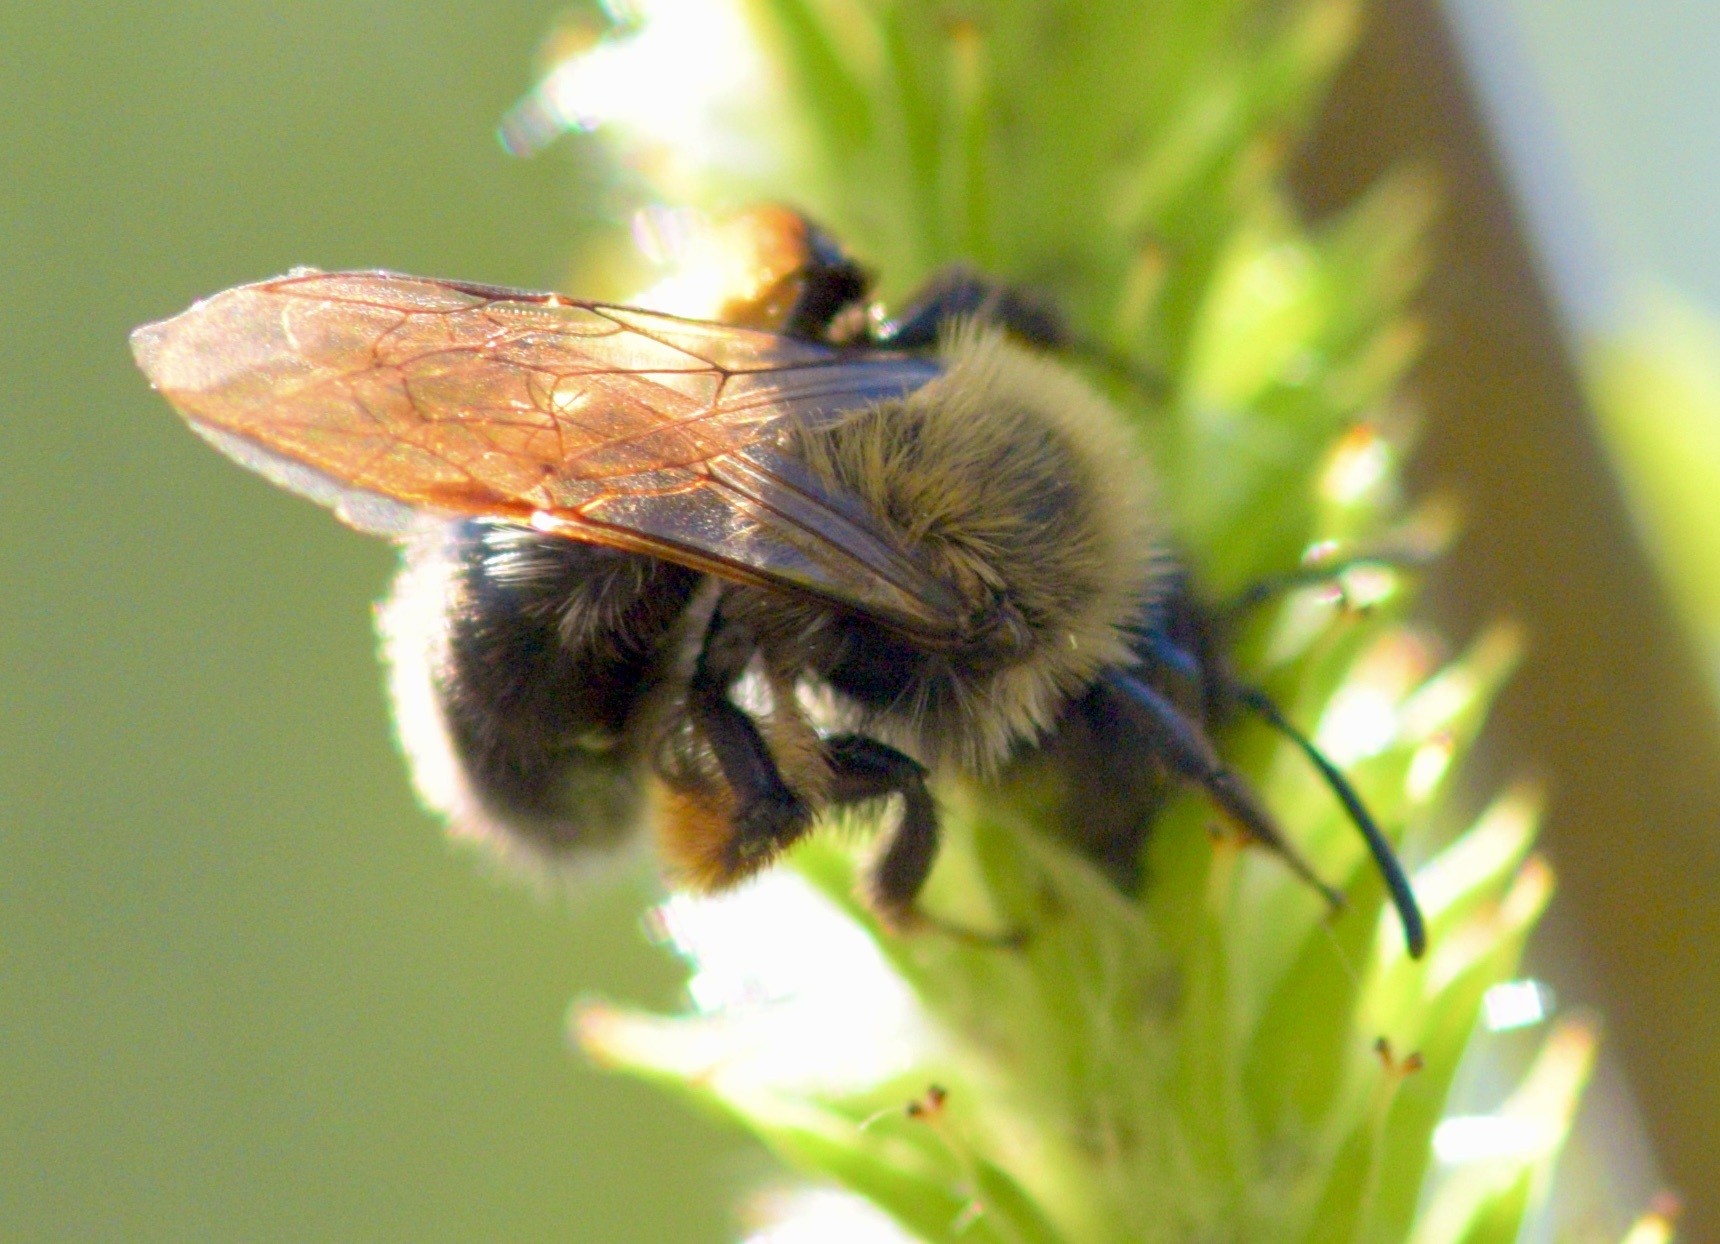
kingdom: Animalia
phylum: Arthropoda
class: Insecta
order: Hymenoptera
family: Andrenidae
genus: Andrena
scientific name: Andrena clarkella
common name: Clarke's mining bee
